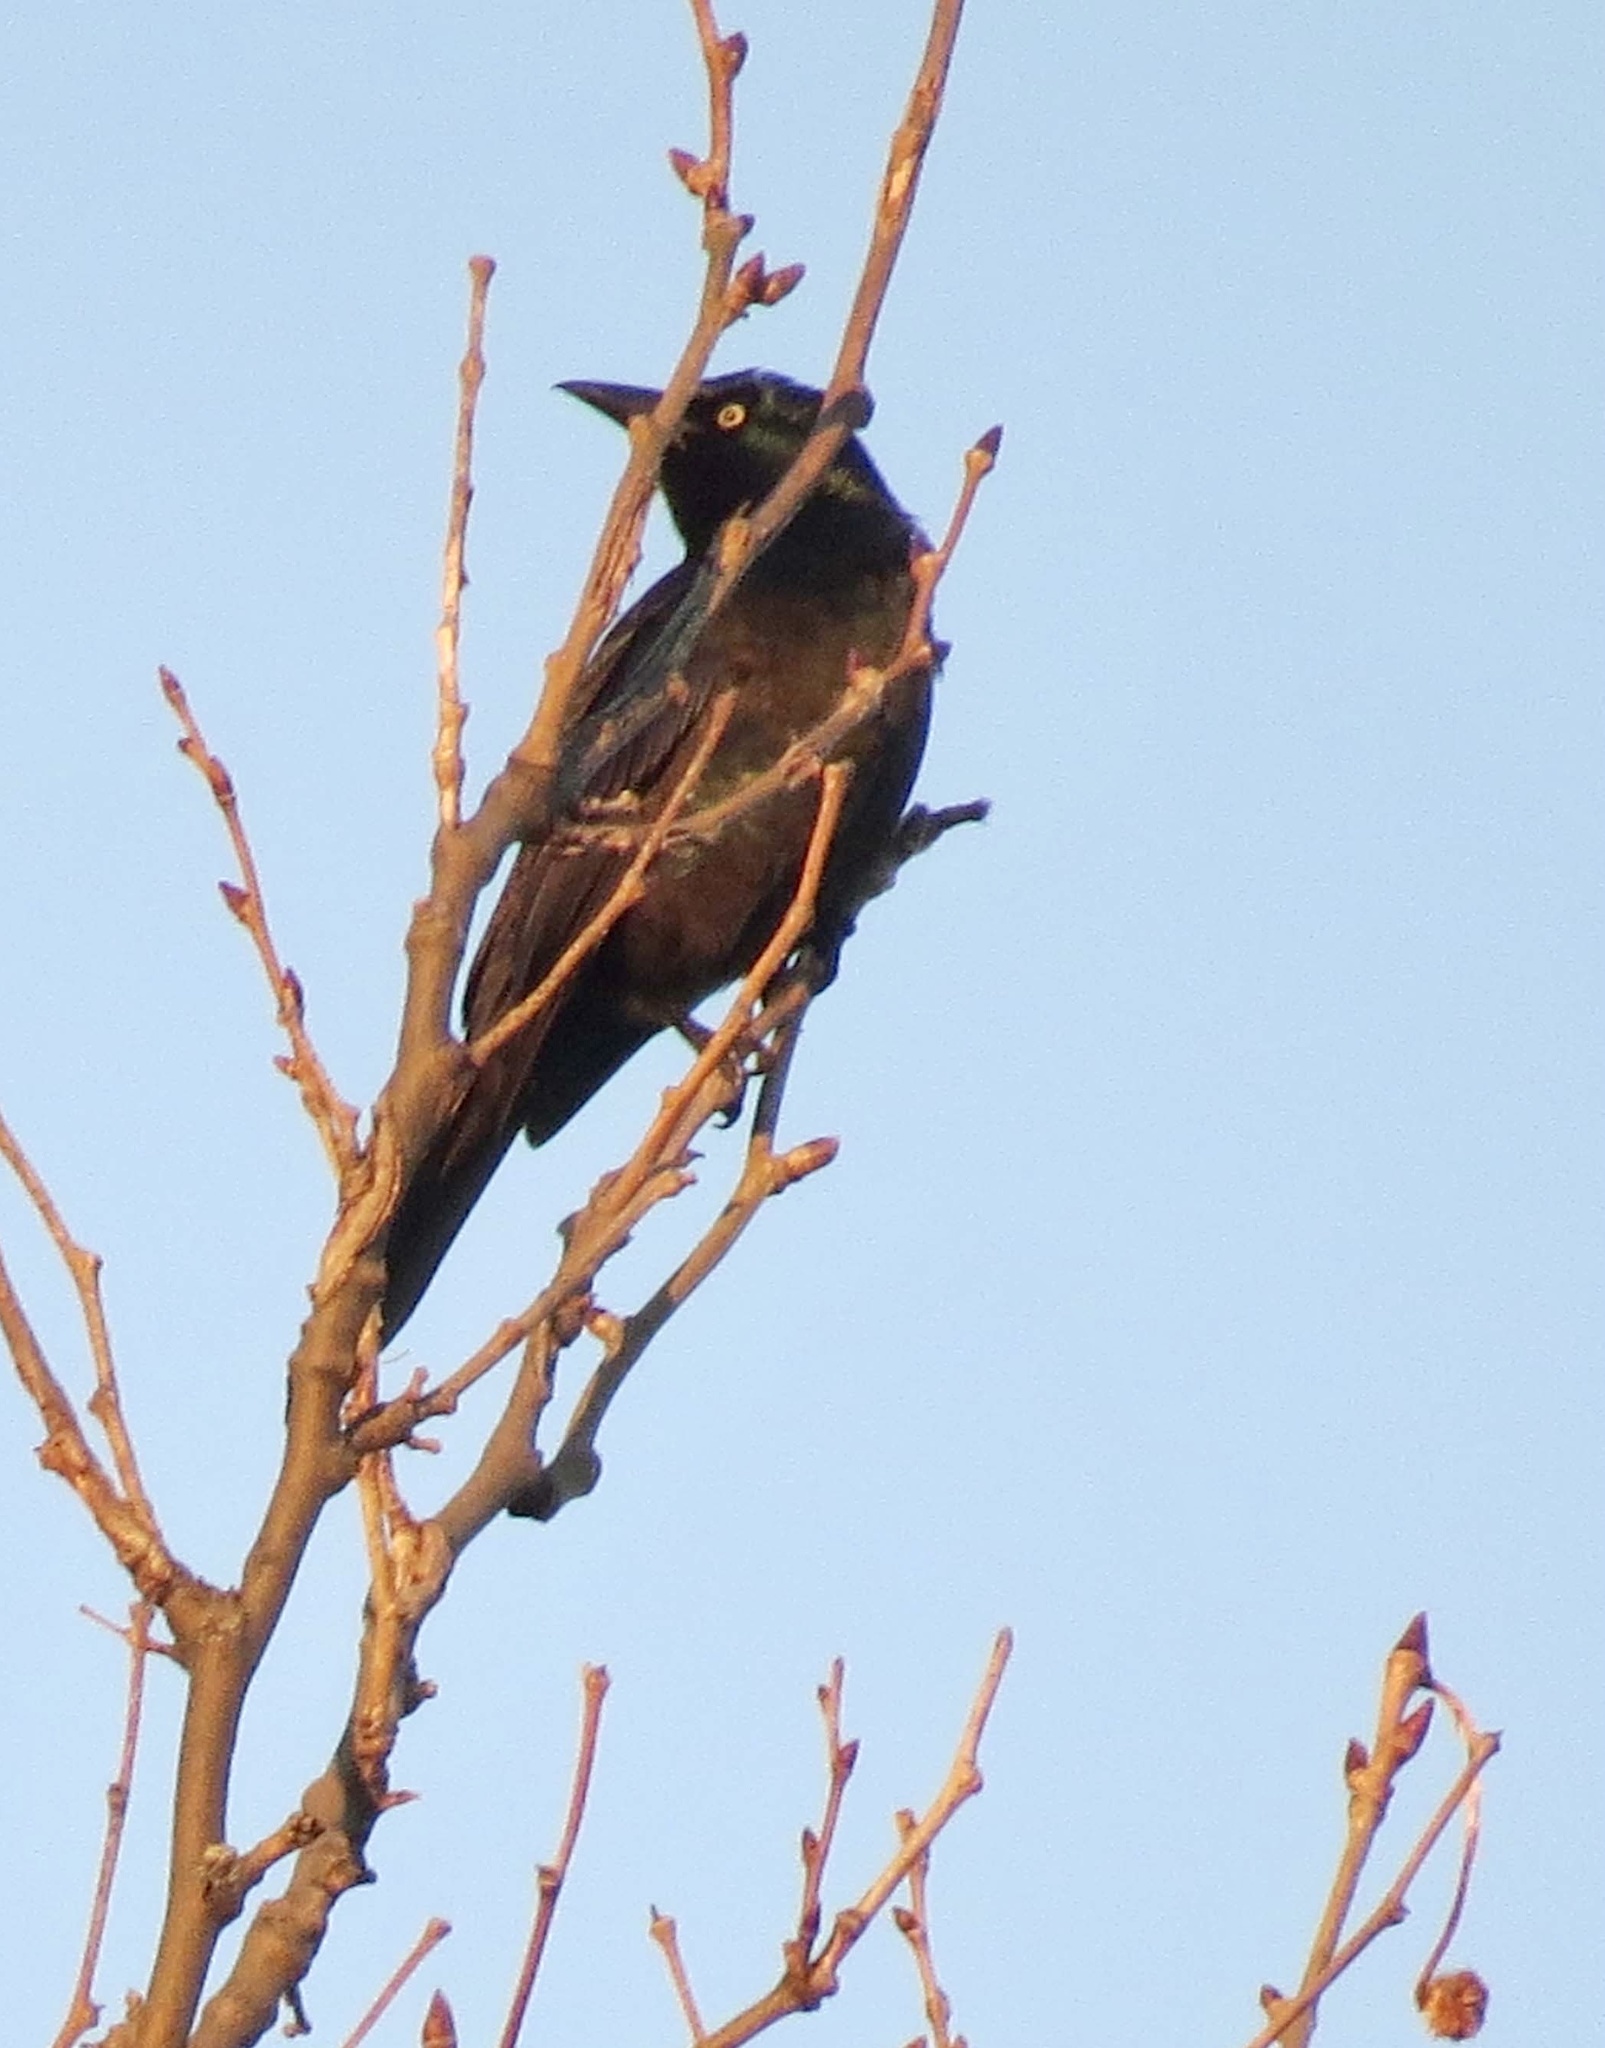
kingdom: Animalia
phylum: Chordata
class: Aves
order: Passeriformes
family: Icteridae
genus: Quiscalus
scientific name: Quiscalus quiscula
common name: Common grackle
